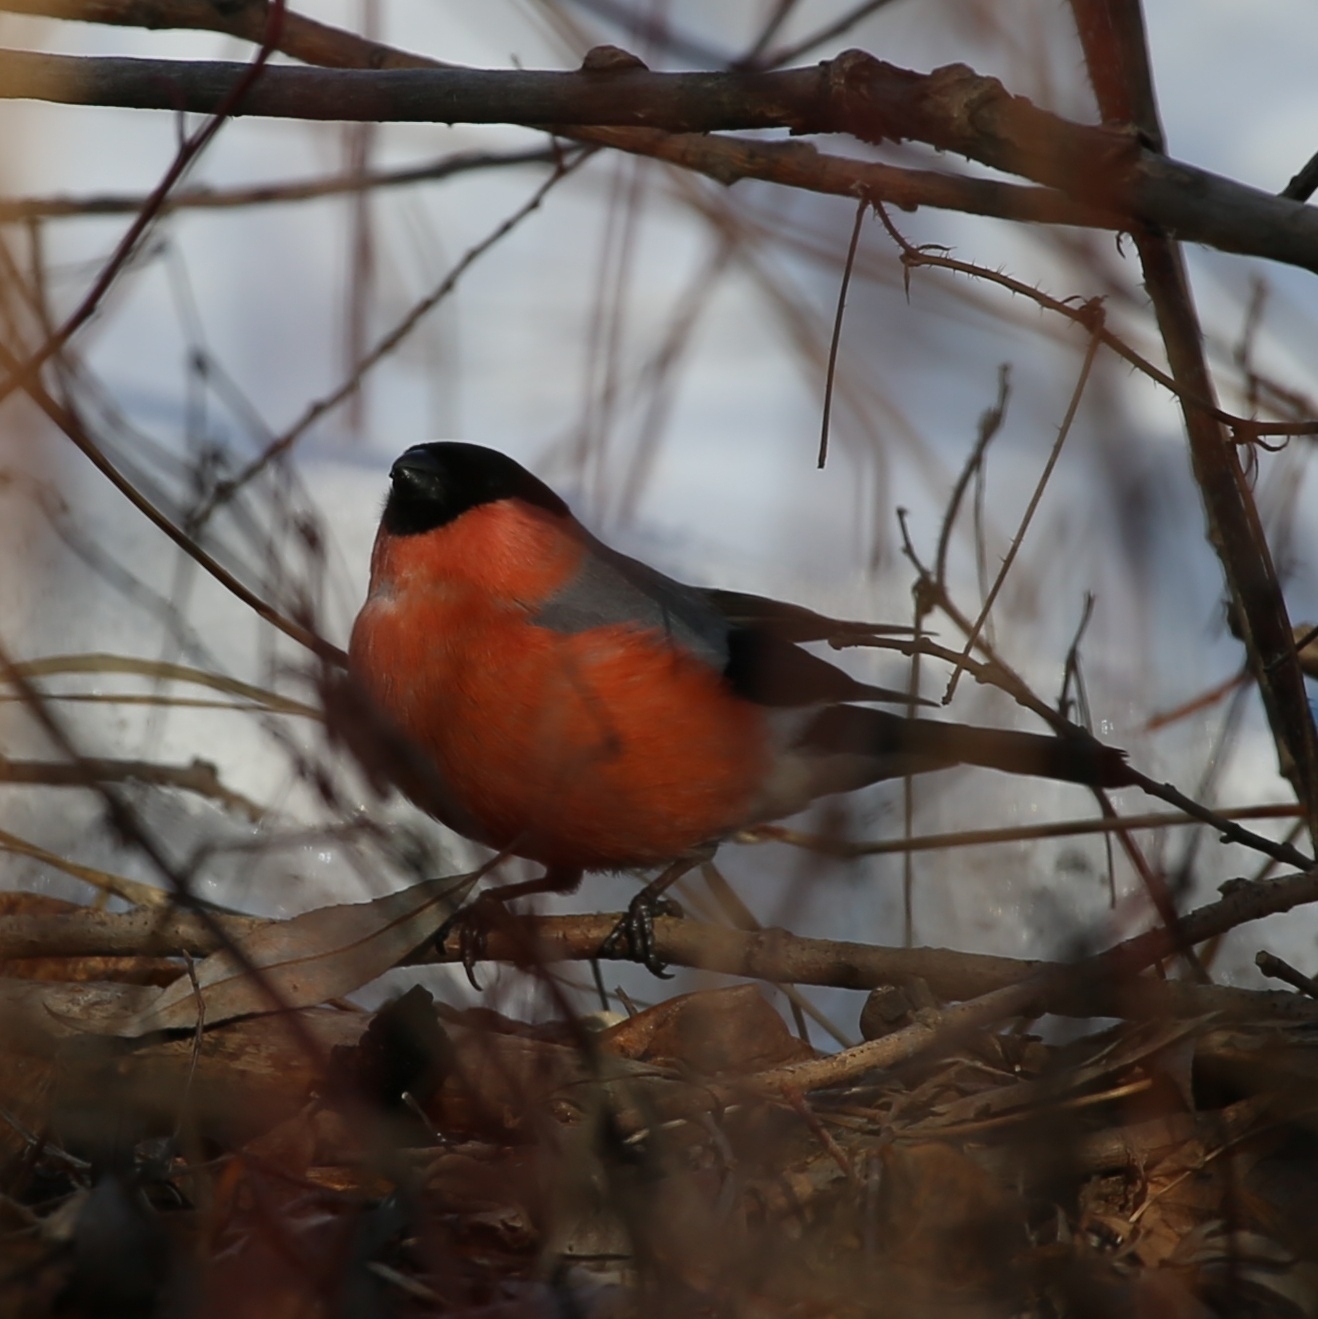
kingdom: Animalia
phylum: Chordata
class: Aves
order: Passeriformes
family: Fringillidae
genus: Pyrrhula
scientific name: Pyrrhula pyrrhula
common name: Eurasian bullfinch
